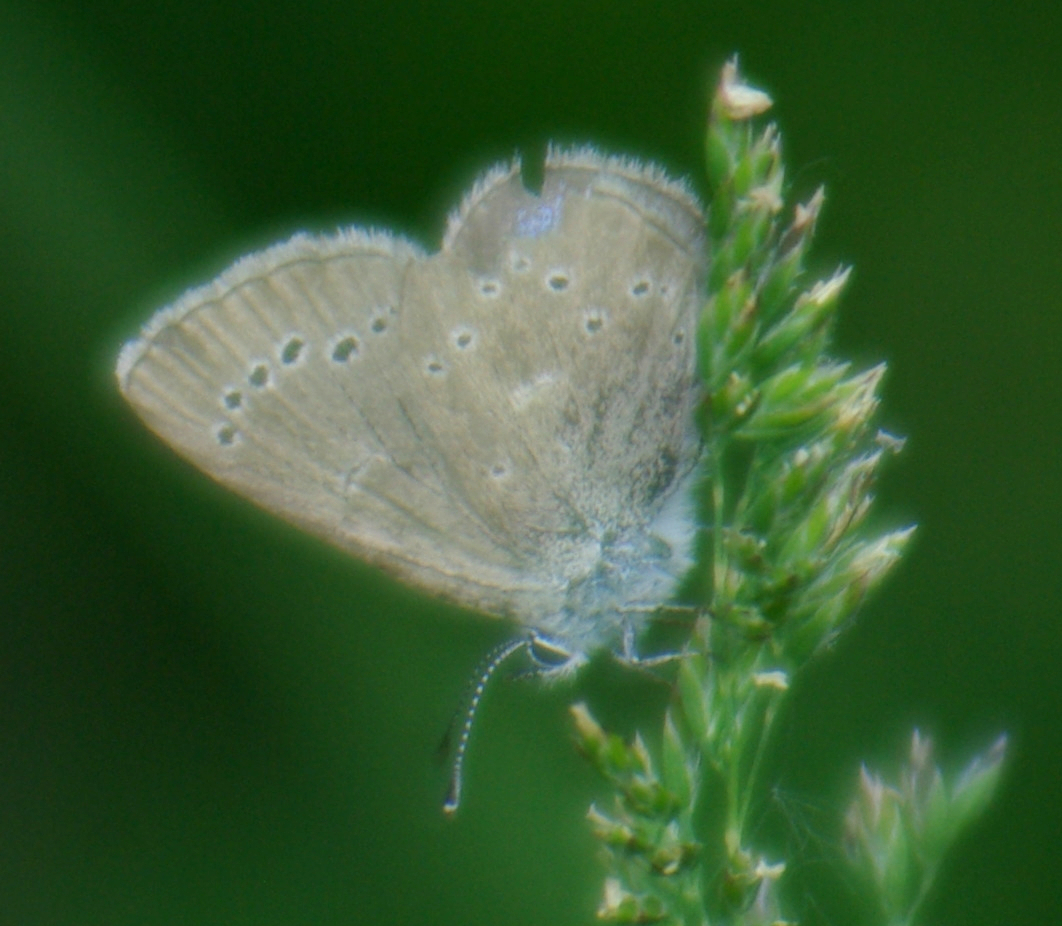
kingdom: Animalia
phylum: Arthropoda
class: Insecta
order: Lepidoptera
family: Lycaenidae
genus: Glaucopsyche
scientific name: Glaucopsyche lygdamus
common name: Silvery blue
